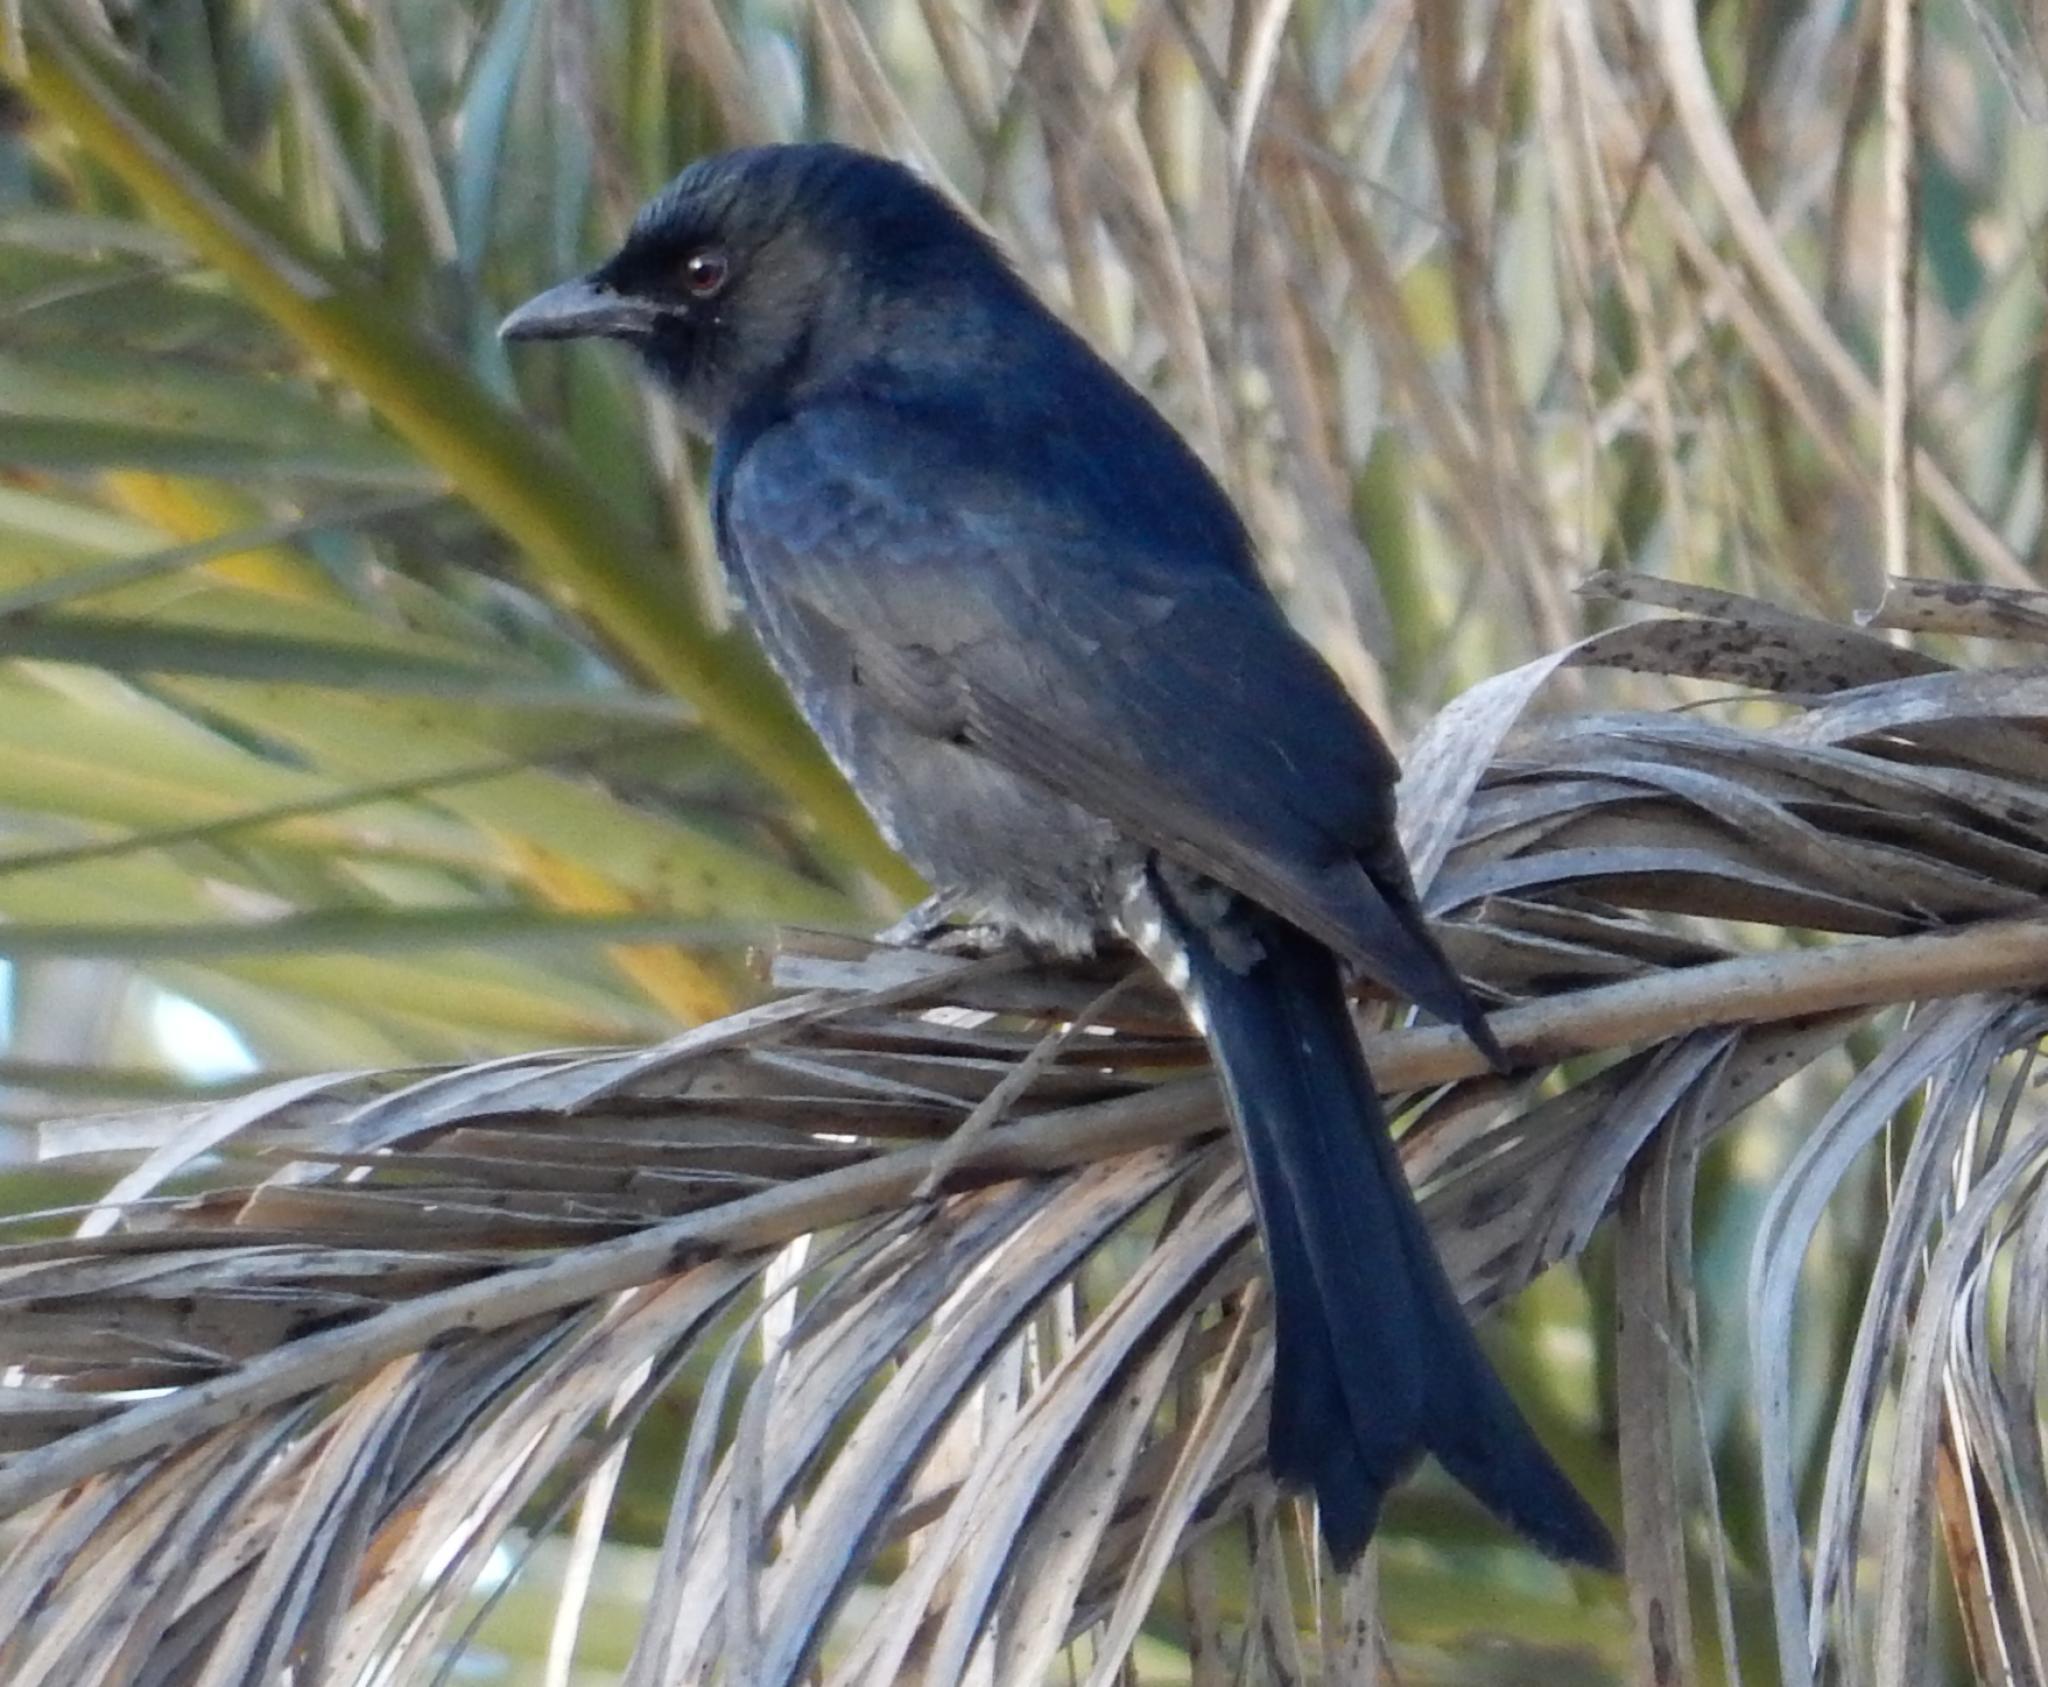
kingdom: Animalia
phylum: Chordata
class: Aves
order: Passeriformes
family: Dicruridae
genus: Dicrurus
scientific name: Dicrurus adsimilis
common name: Fork-tailed drongo
